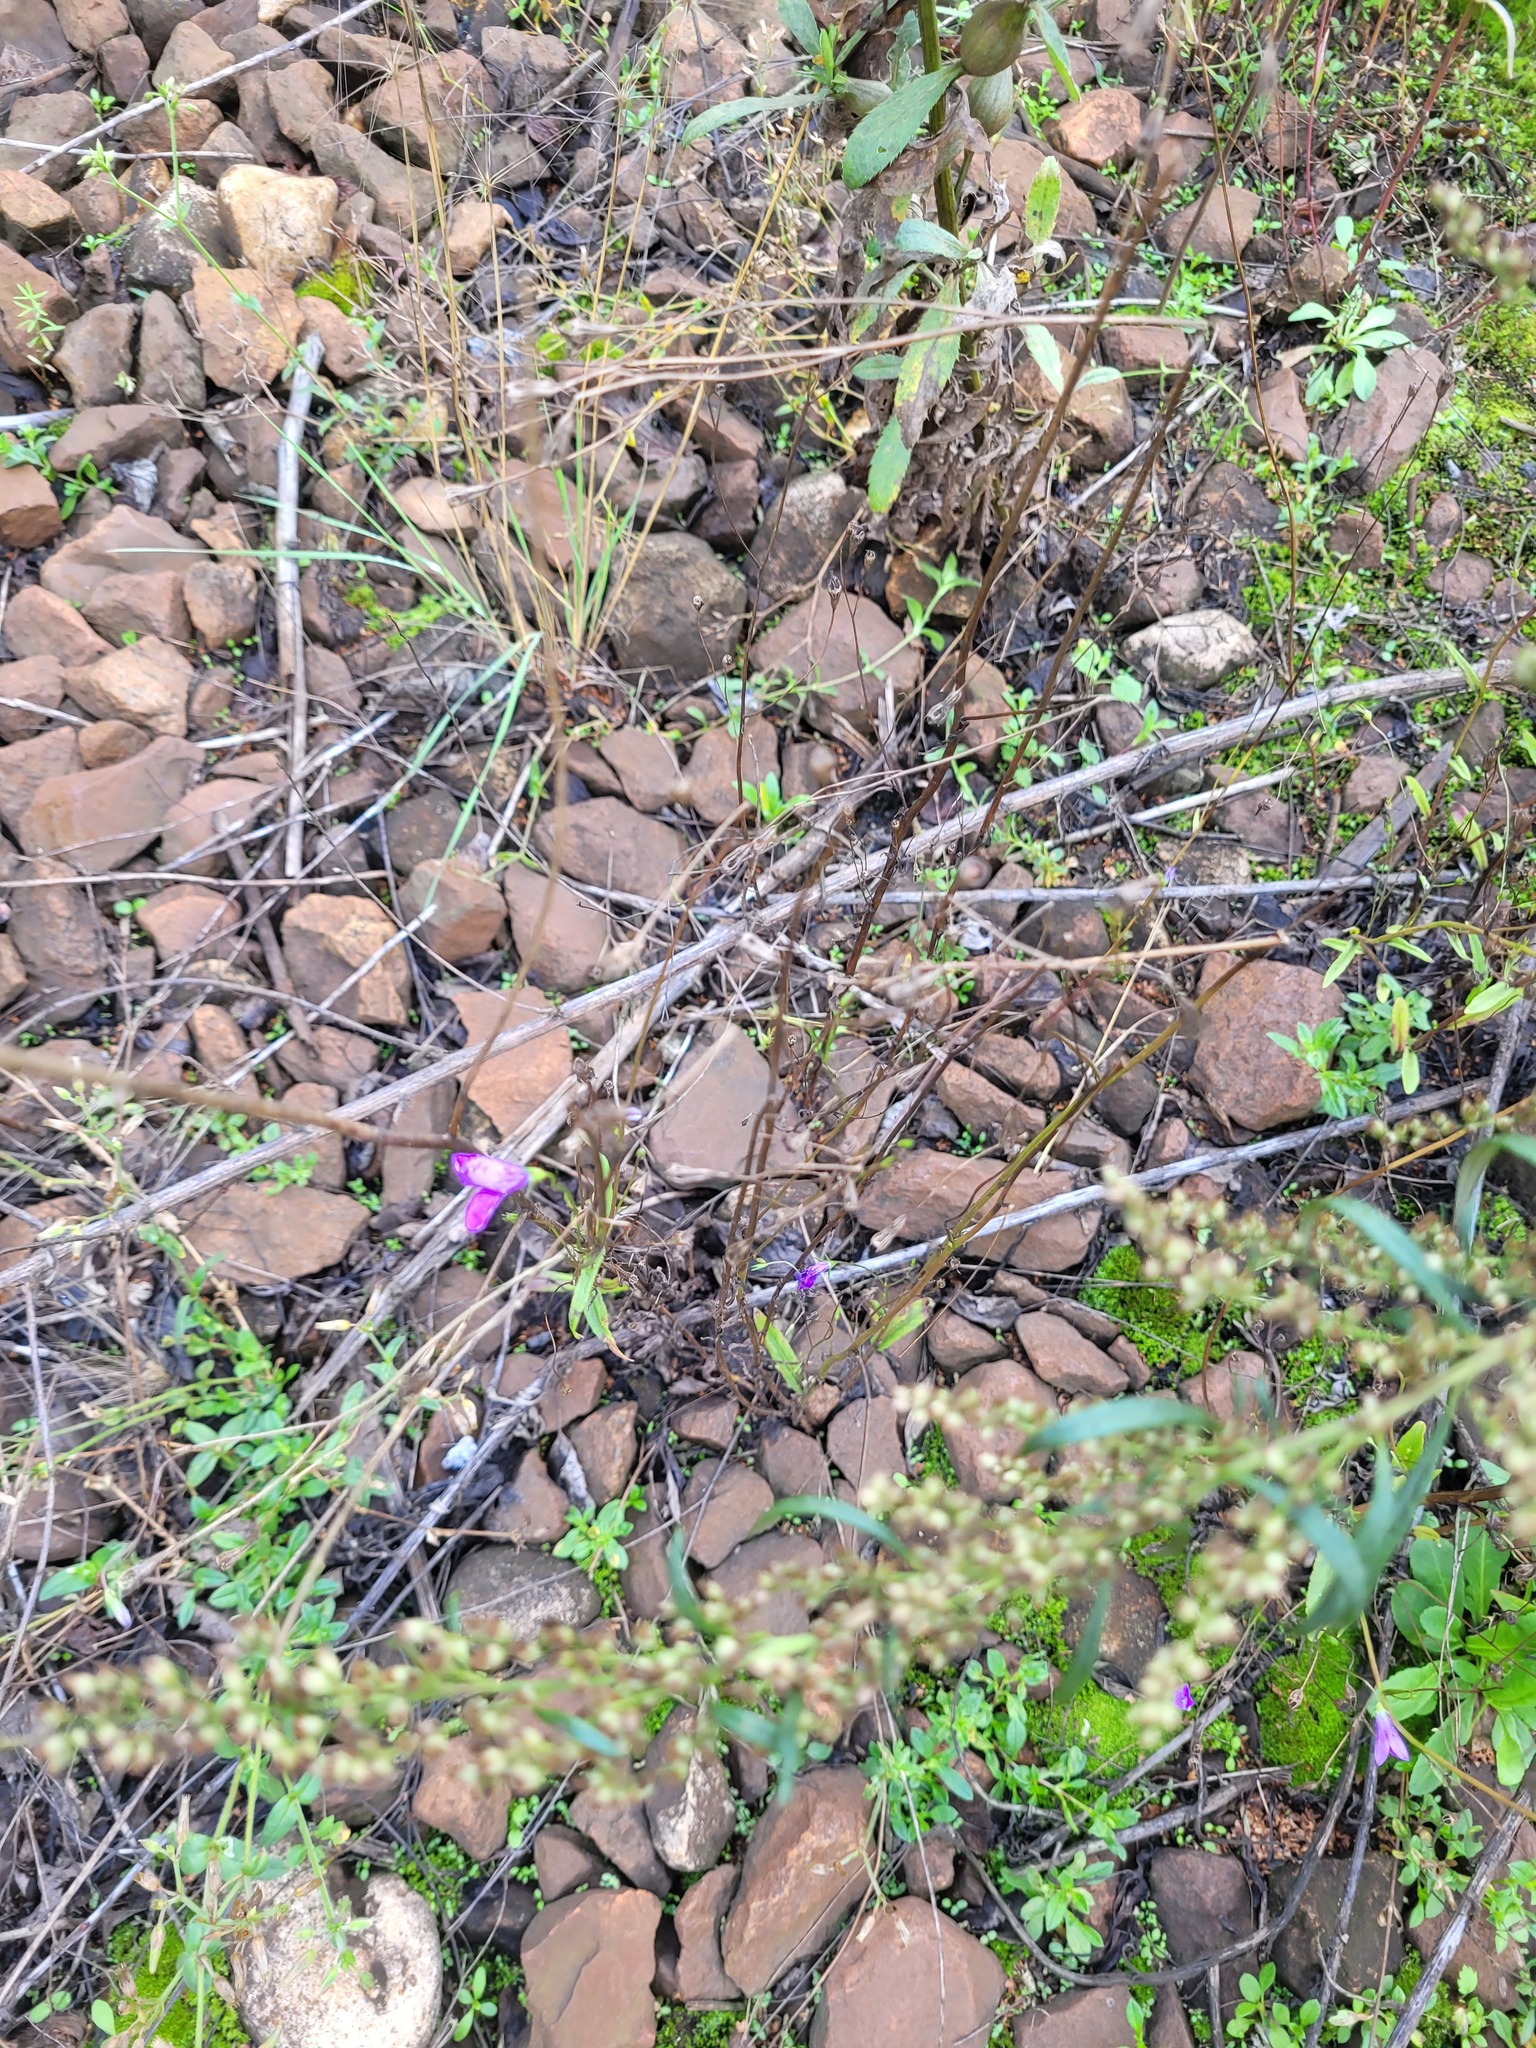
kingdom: Plantae
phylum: Tracheophyta
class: Magnoliopsida
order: Asterales
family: Campanulaceae
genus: Campanula
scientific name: Campanula patula
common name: Spreading bellflower
